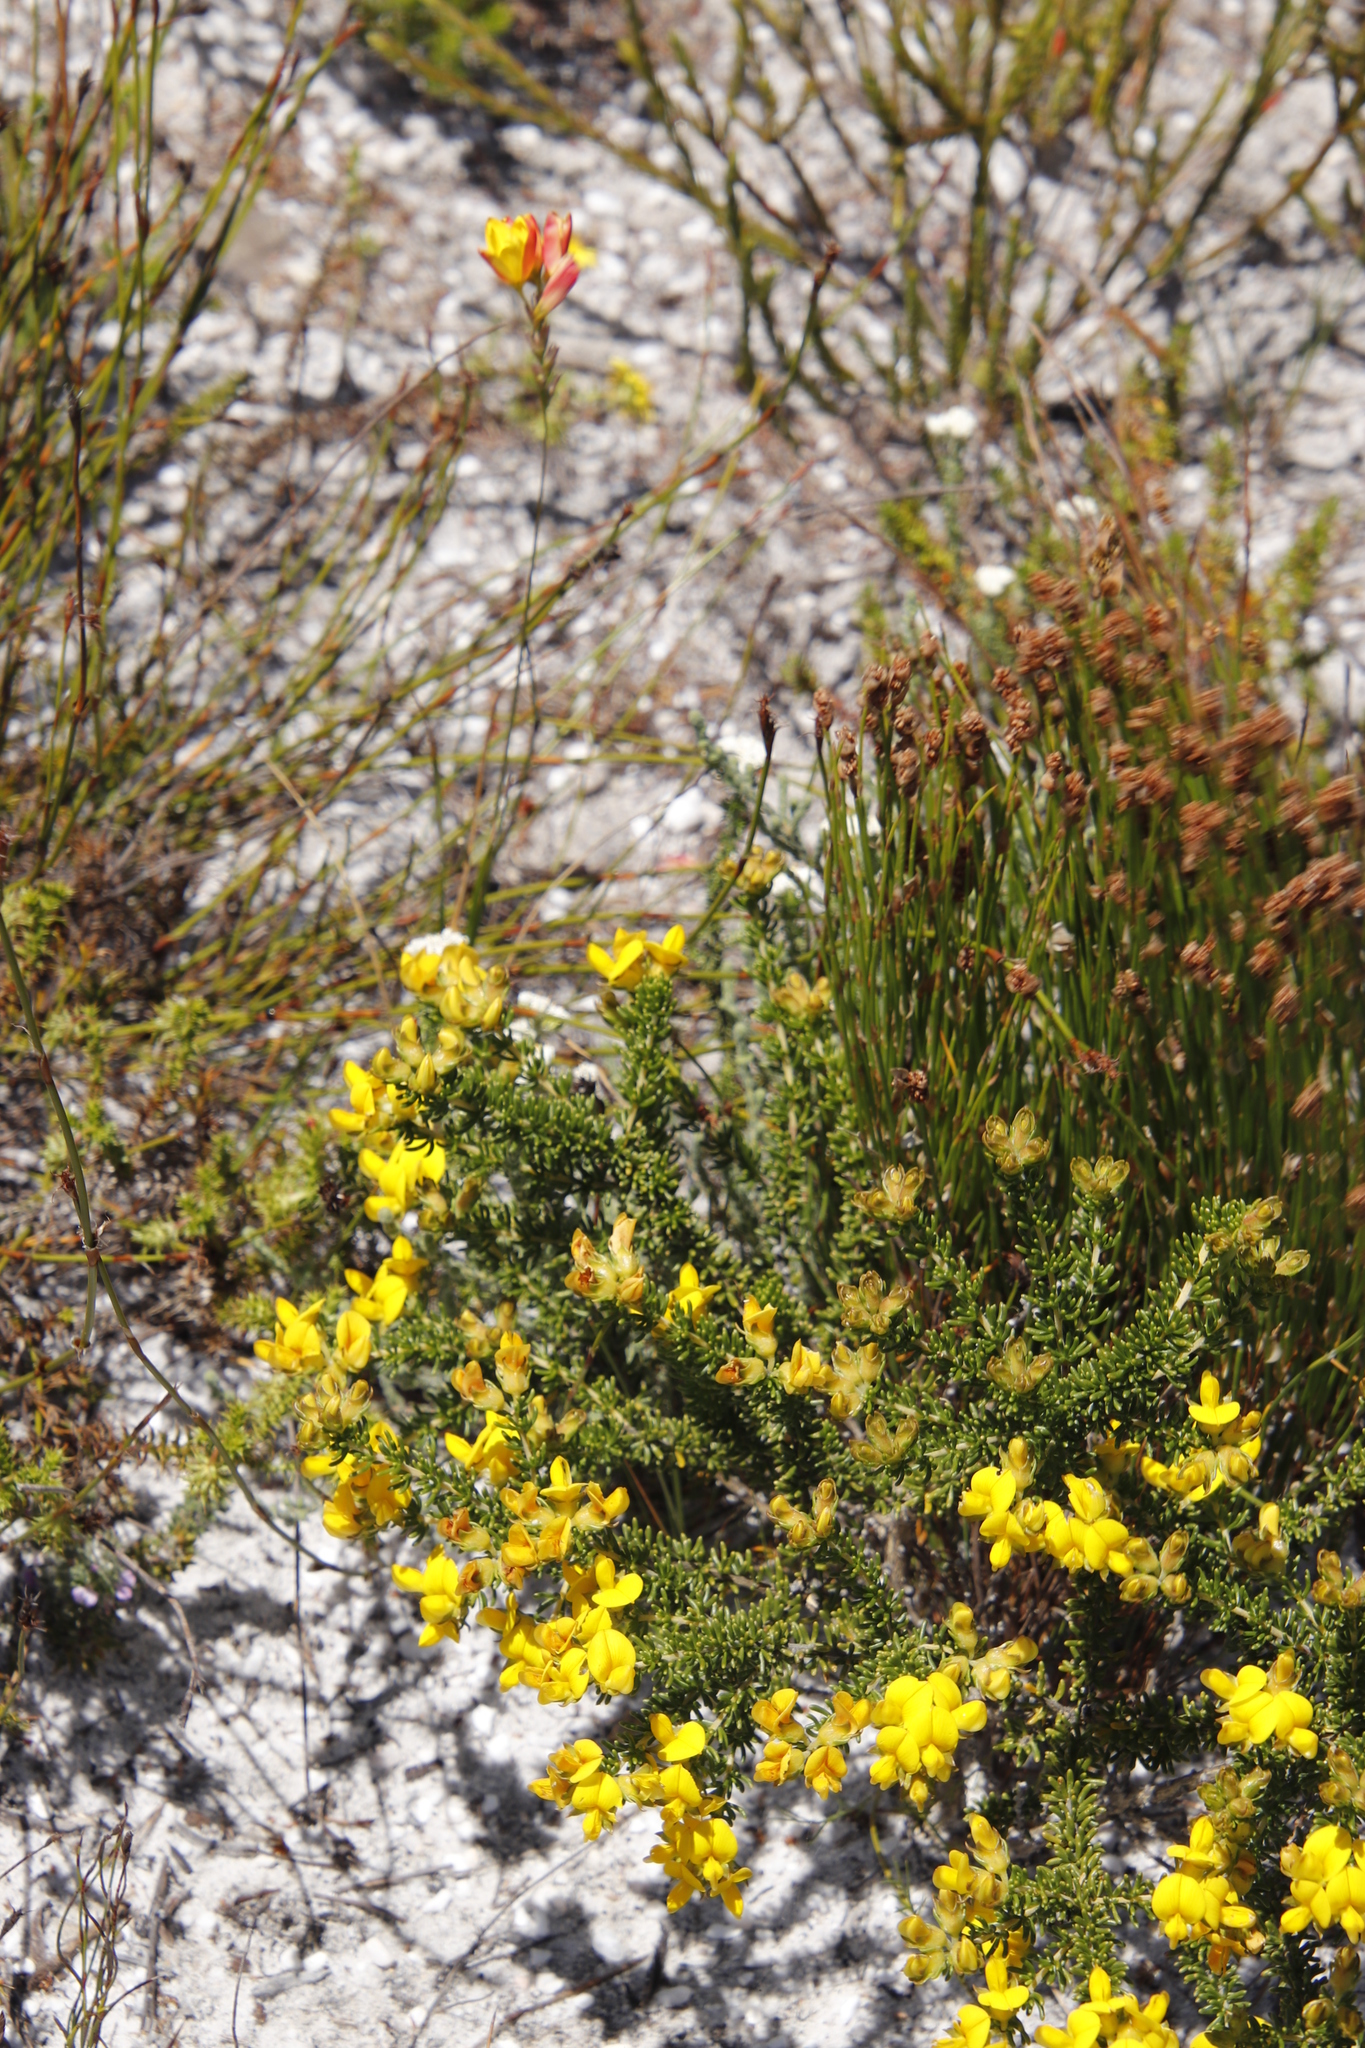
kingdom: Plantae
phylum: Tracheophyta
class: Liliopsida
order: Asparagales
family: Iridaceae
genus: Ixia
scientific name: Ixia dubia
